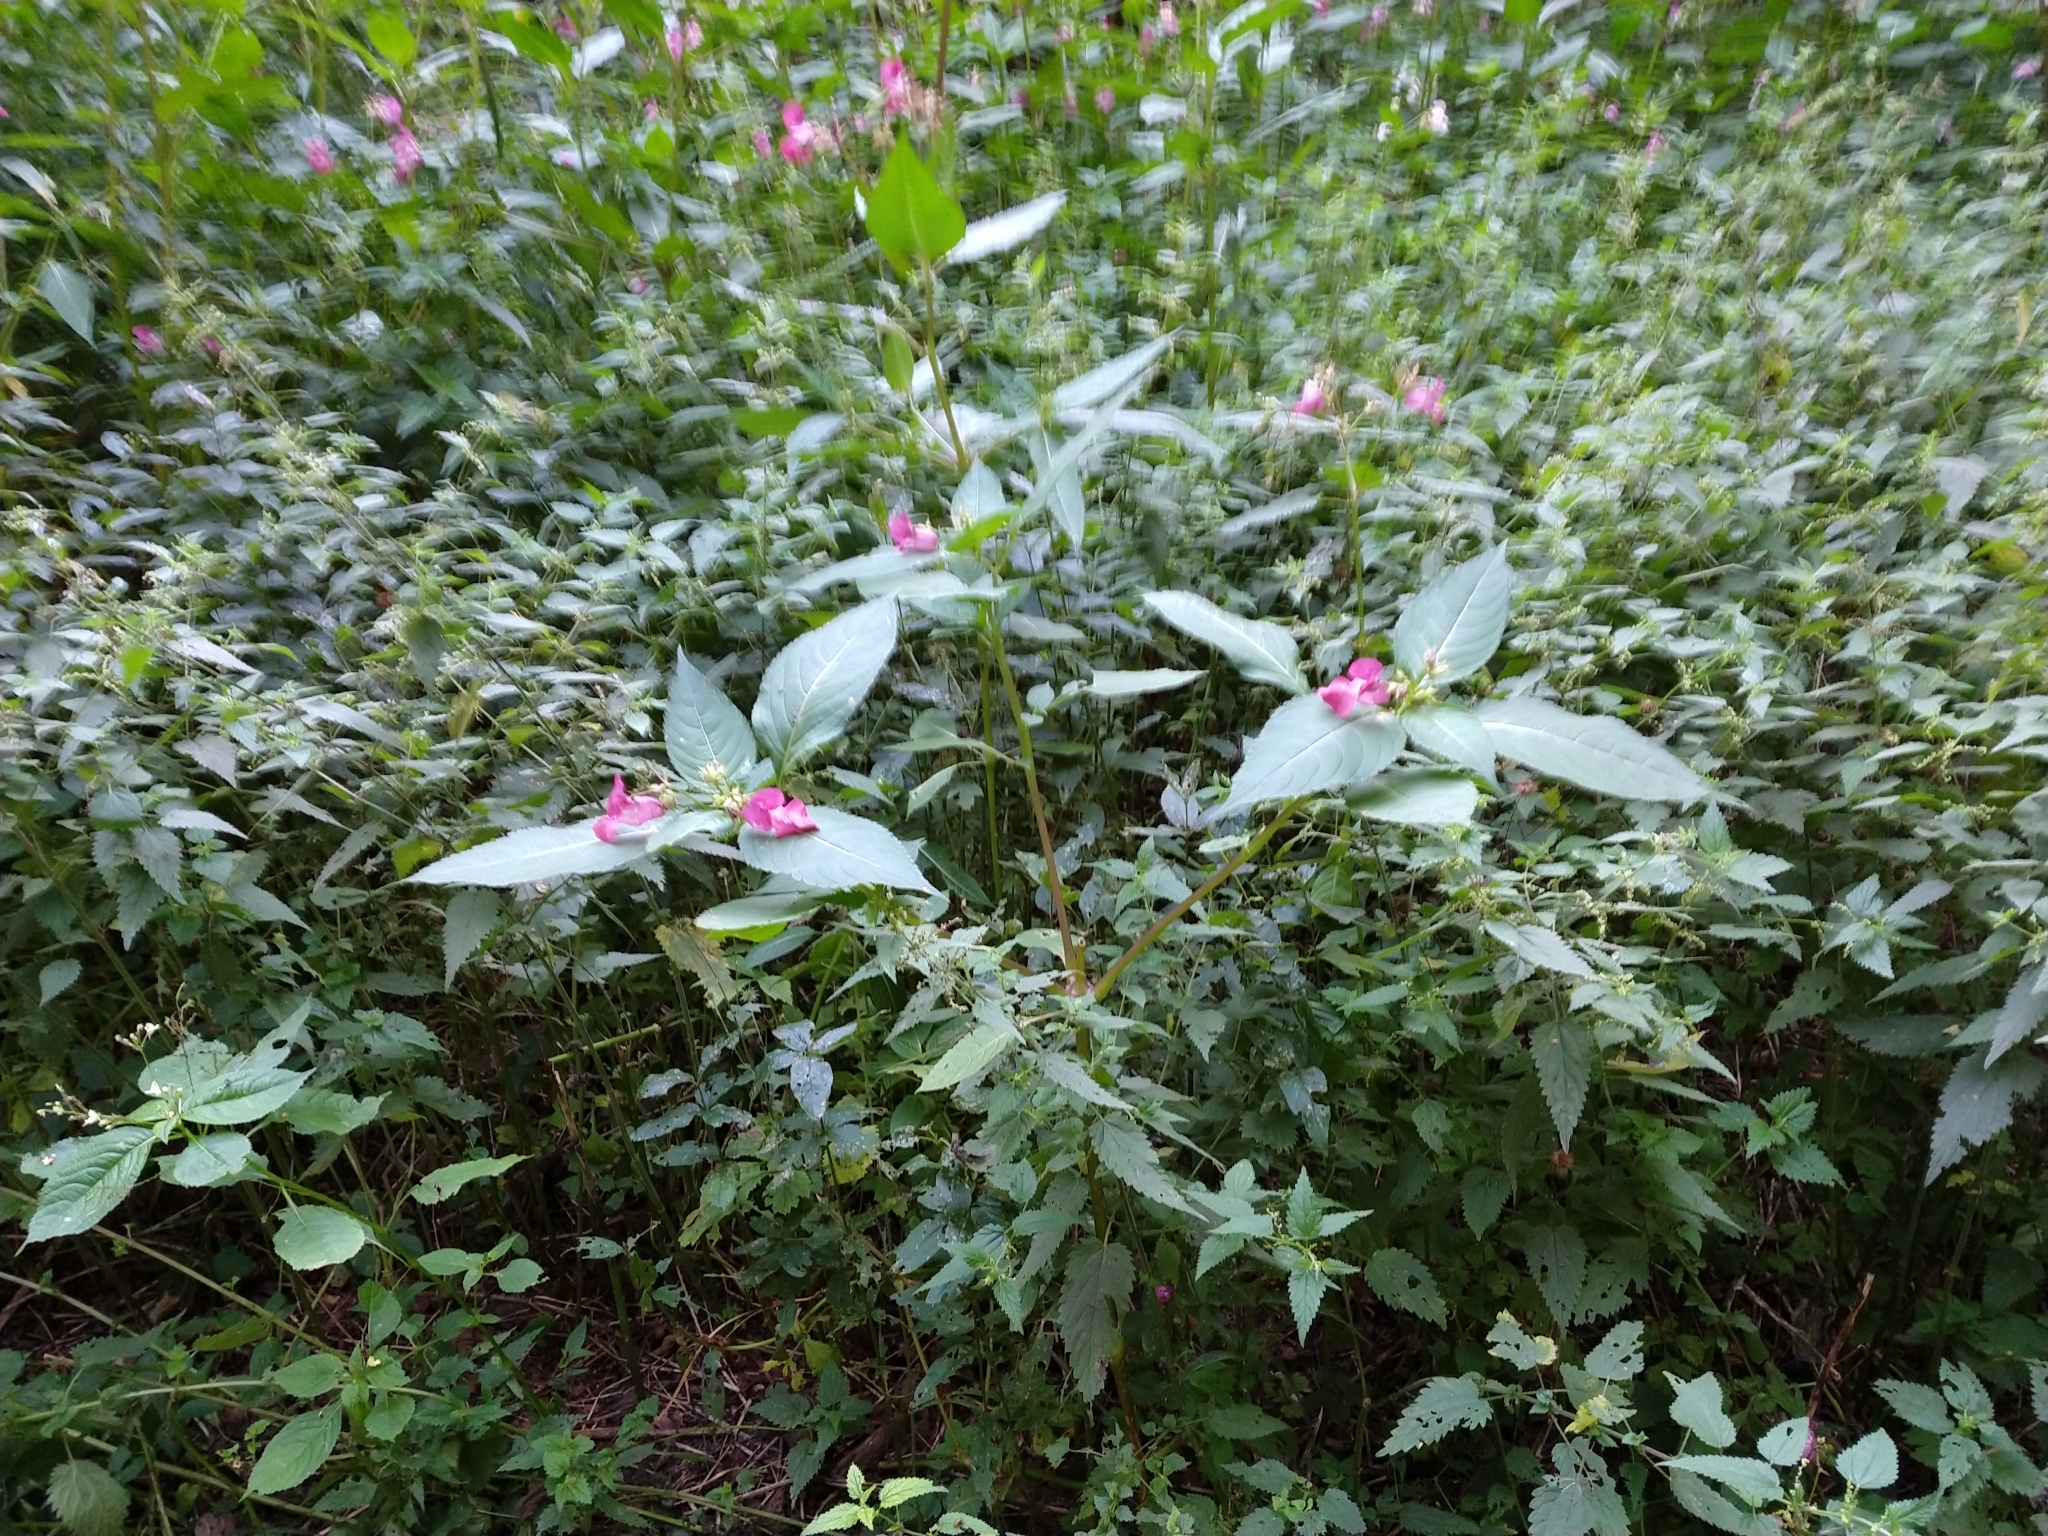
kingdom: Plantae
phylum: Tracheophyta
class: Magnoliopsida
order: Ericales
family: Balsaminaceae
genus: Impatiens
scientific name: Impatiens glandulifera
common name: Himalayan balsam
